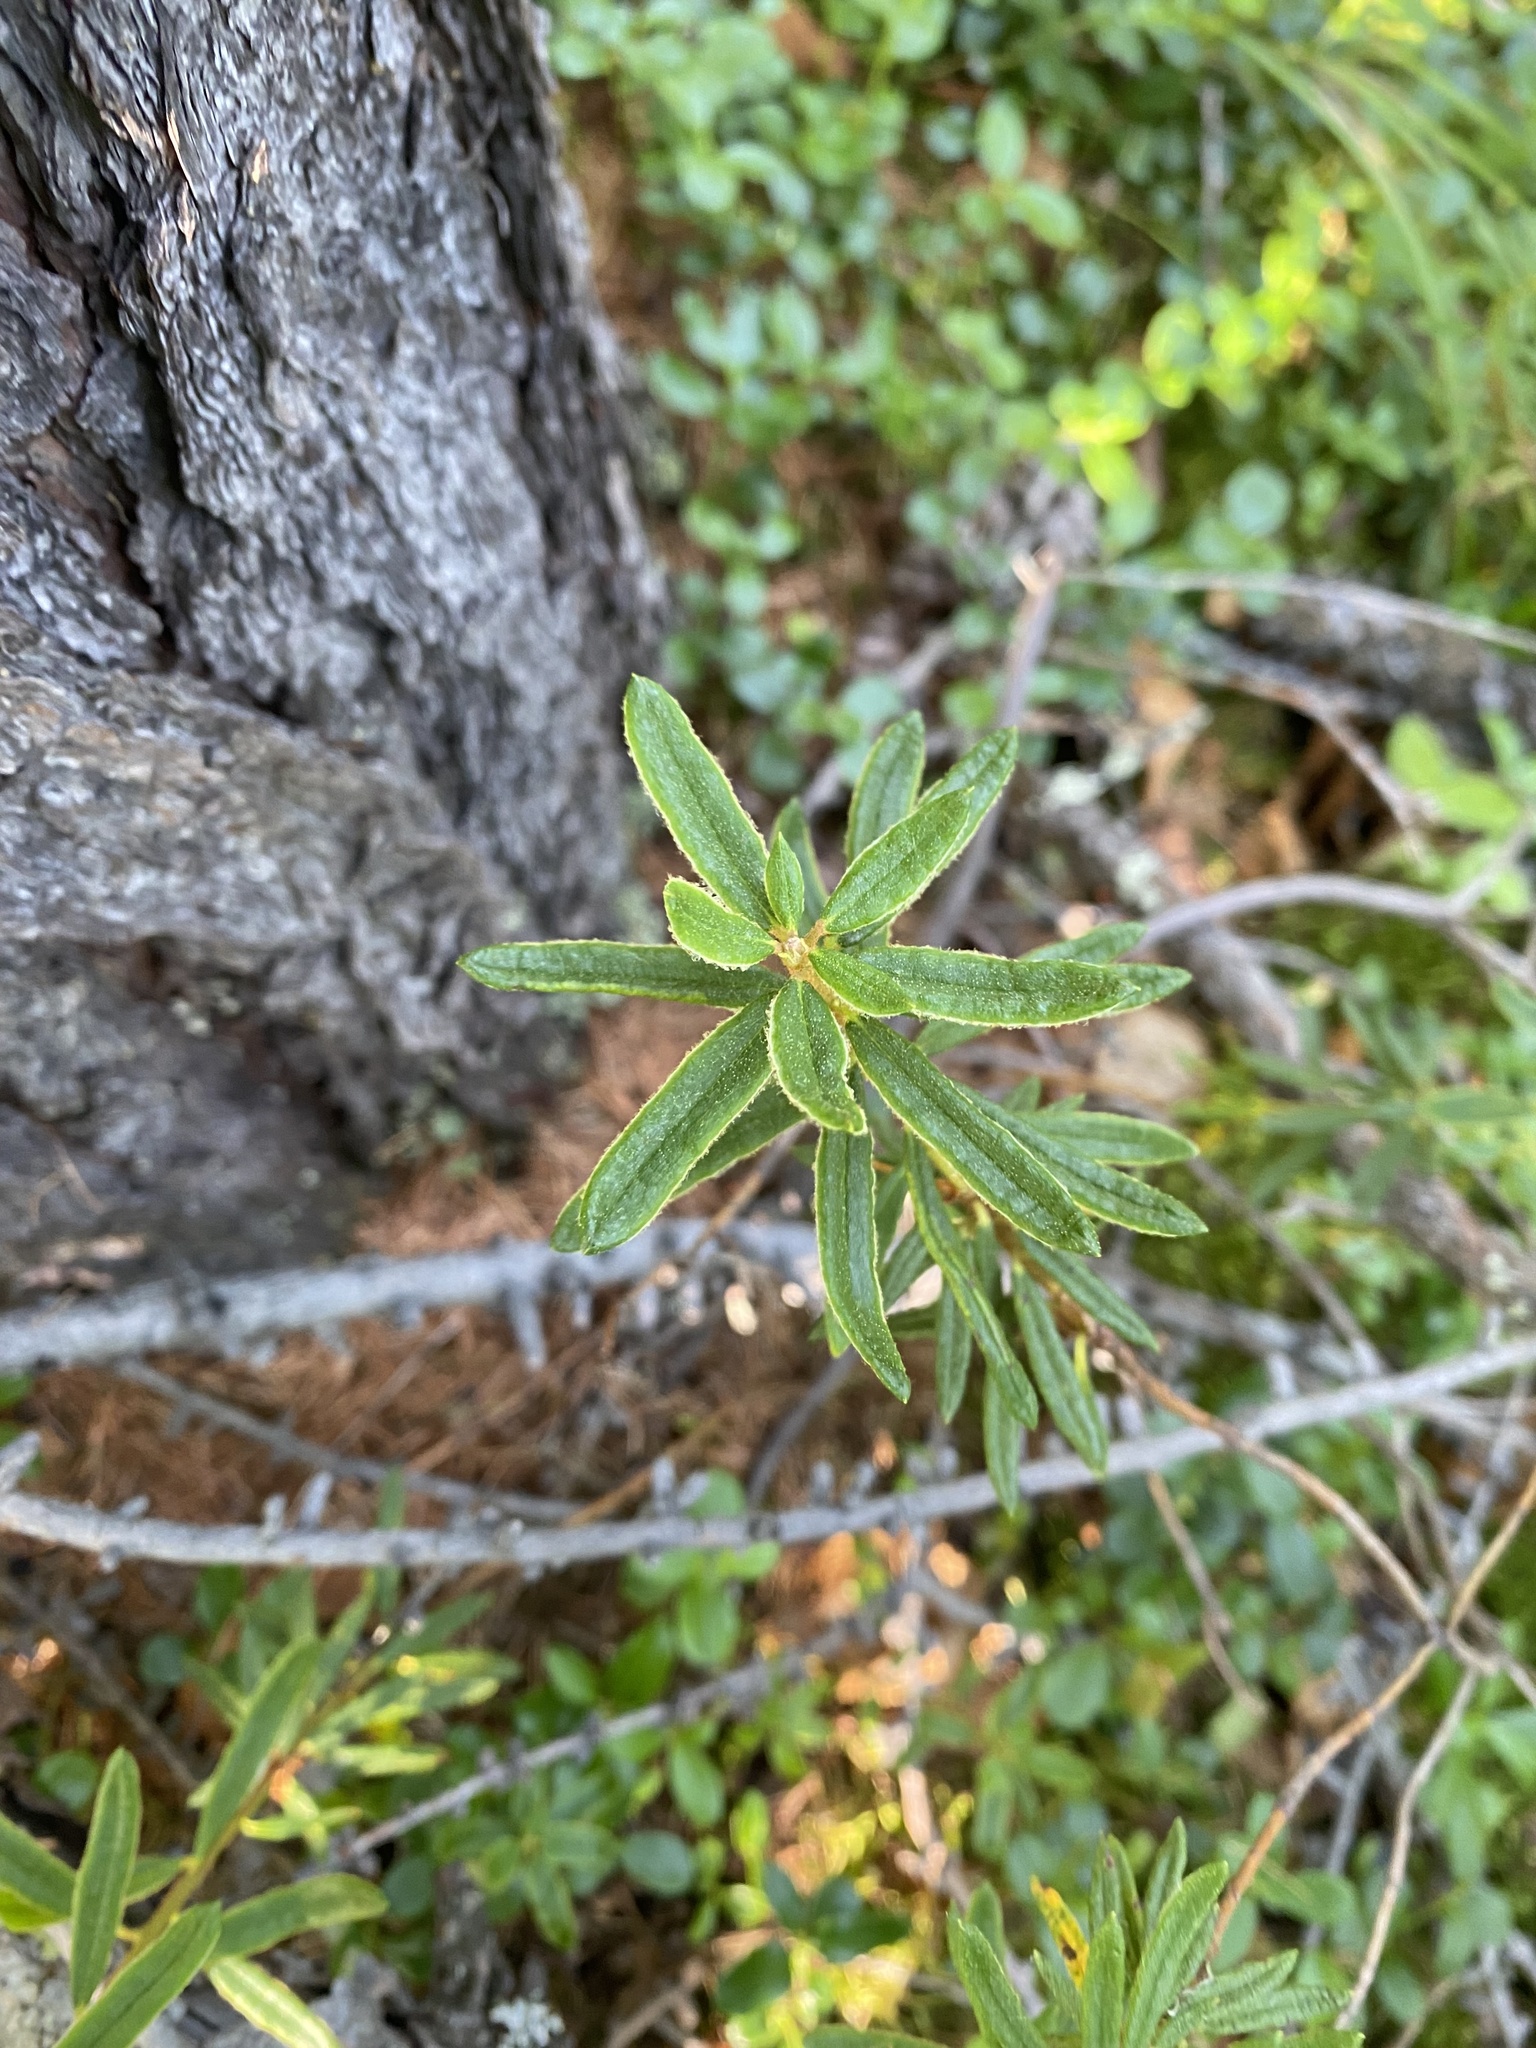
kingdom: Plantae
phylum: Tracheophyta
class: Magnoliopsida
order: Ericales
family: Ericaceae
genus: Rhododendron
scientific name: Rhododendron tomentosum
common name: Marsh labrador tea
